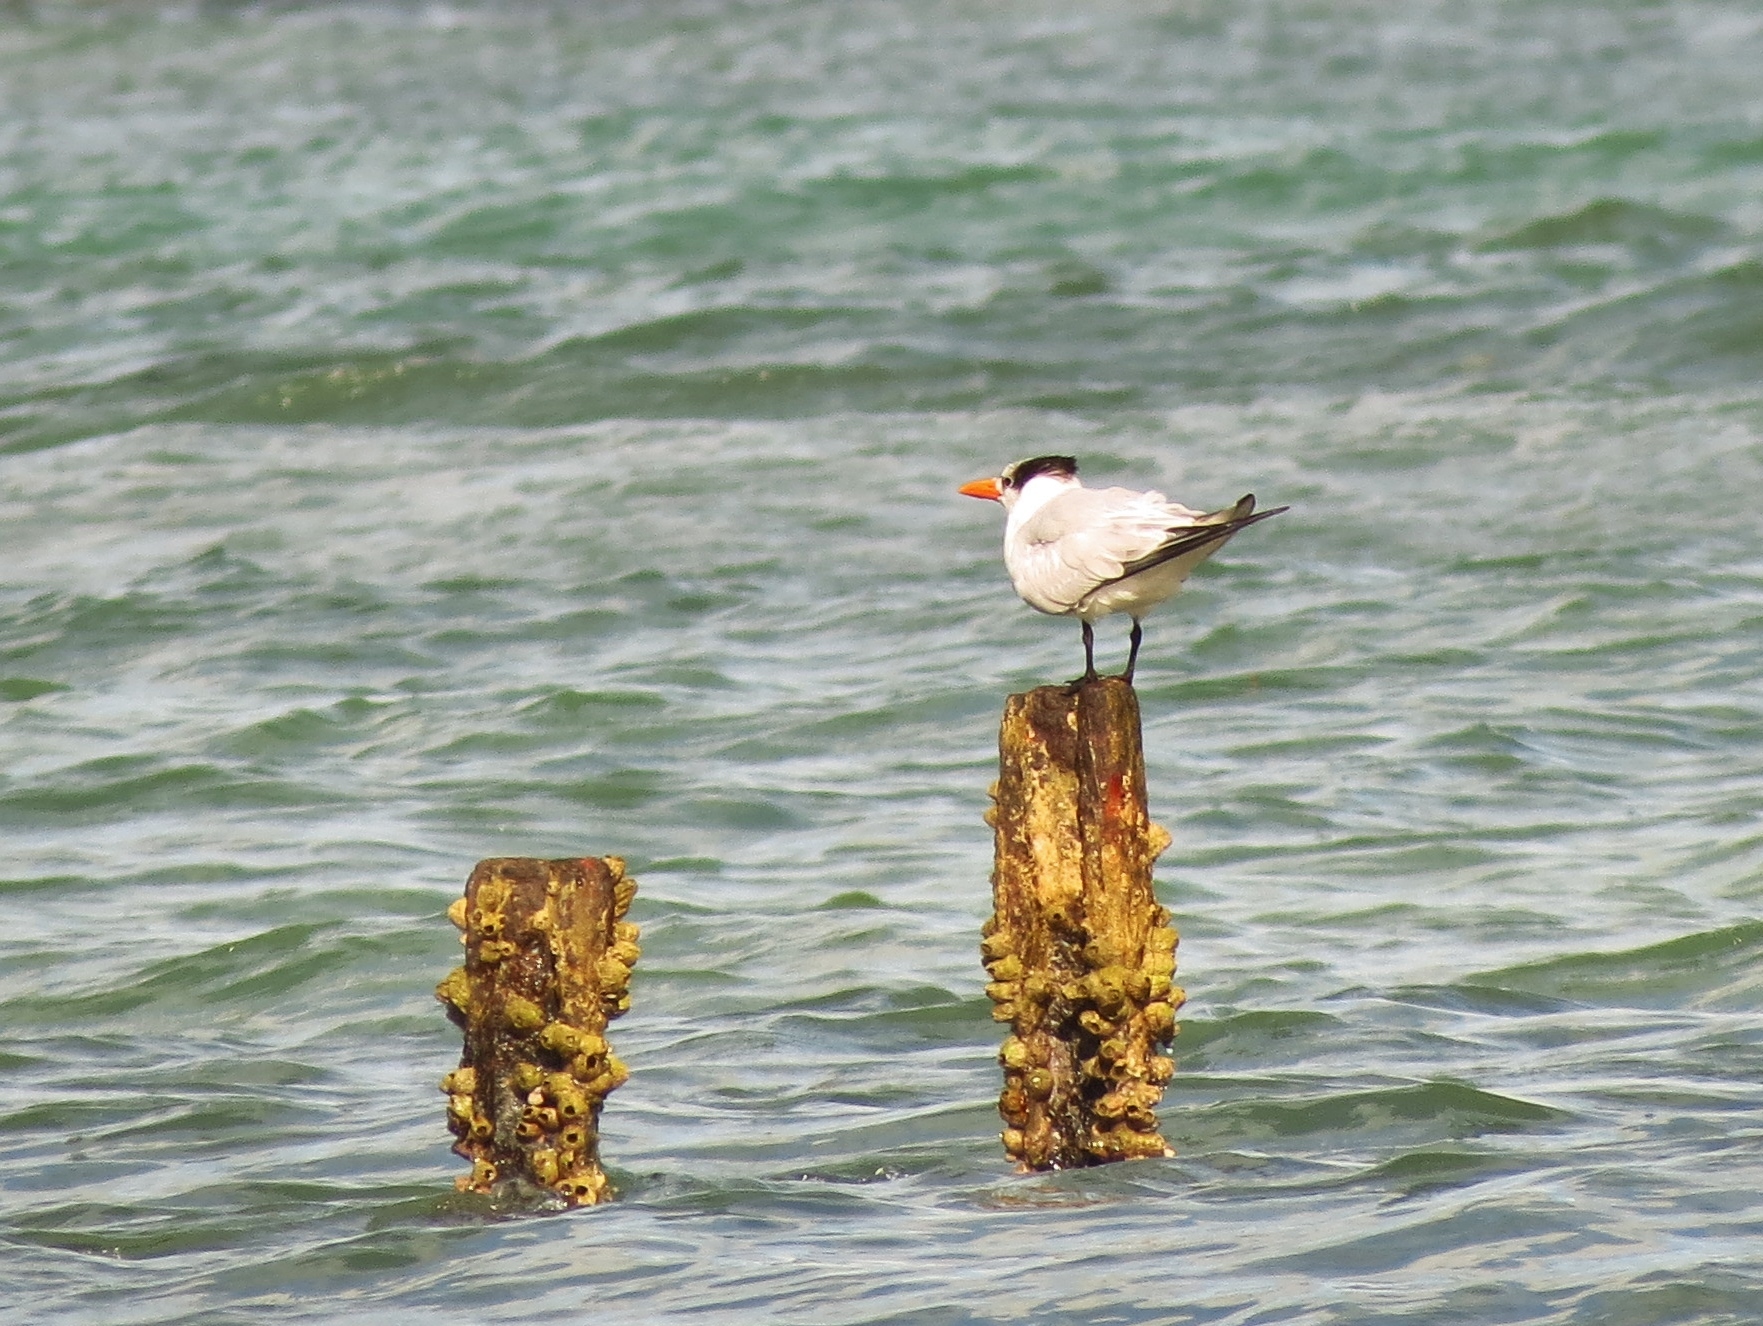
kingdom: Animalia
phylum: Chordata
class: Aves
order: Charadriiformes
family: Laridae
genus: Thalasseus
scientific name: Thalasseus maximus
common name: Royal tern
